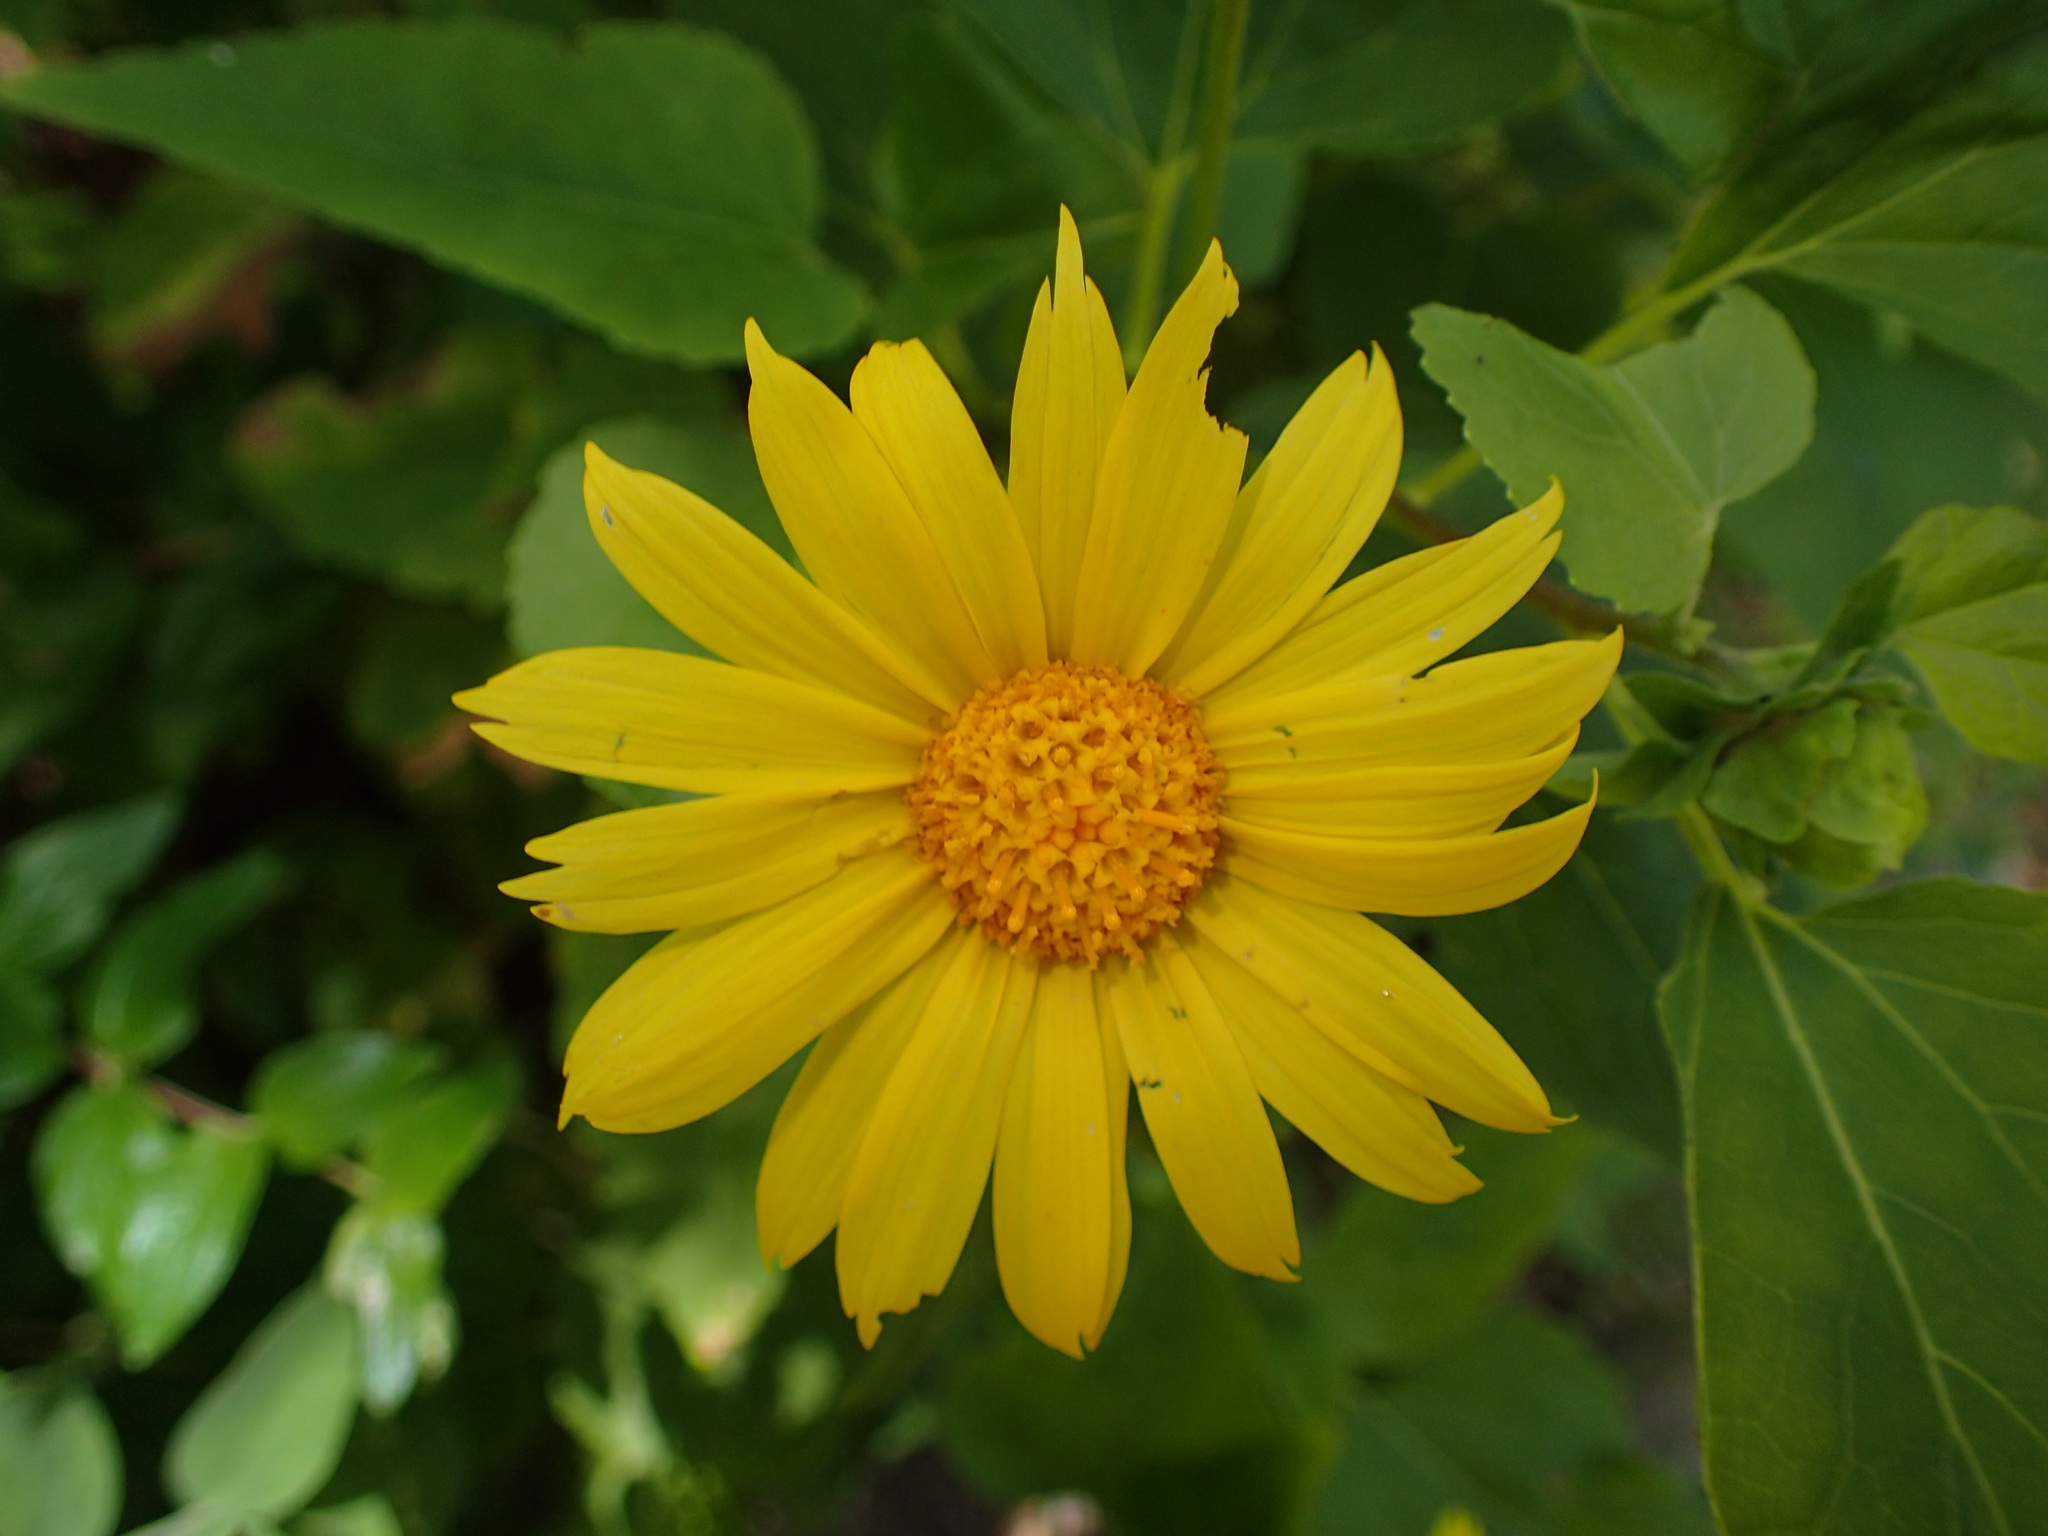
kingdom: Plantae
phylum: Tracheophyta
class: Magnoliopsida
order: Asterales
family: Asteraceae
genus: Venegasia
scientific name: Venegasia carpesioides
